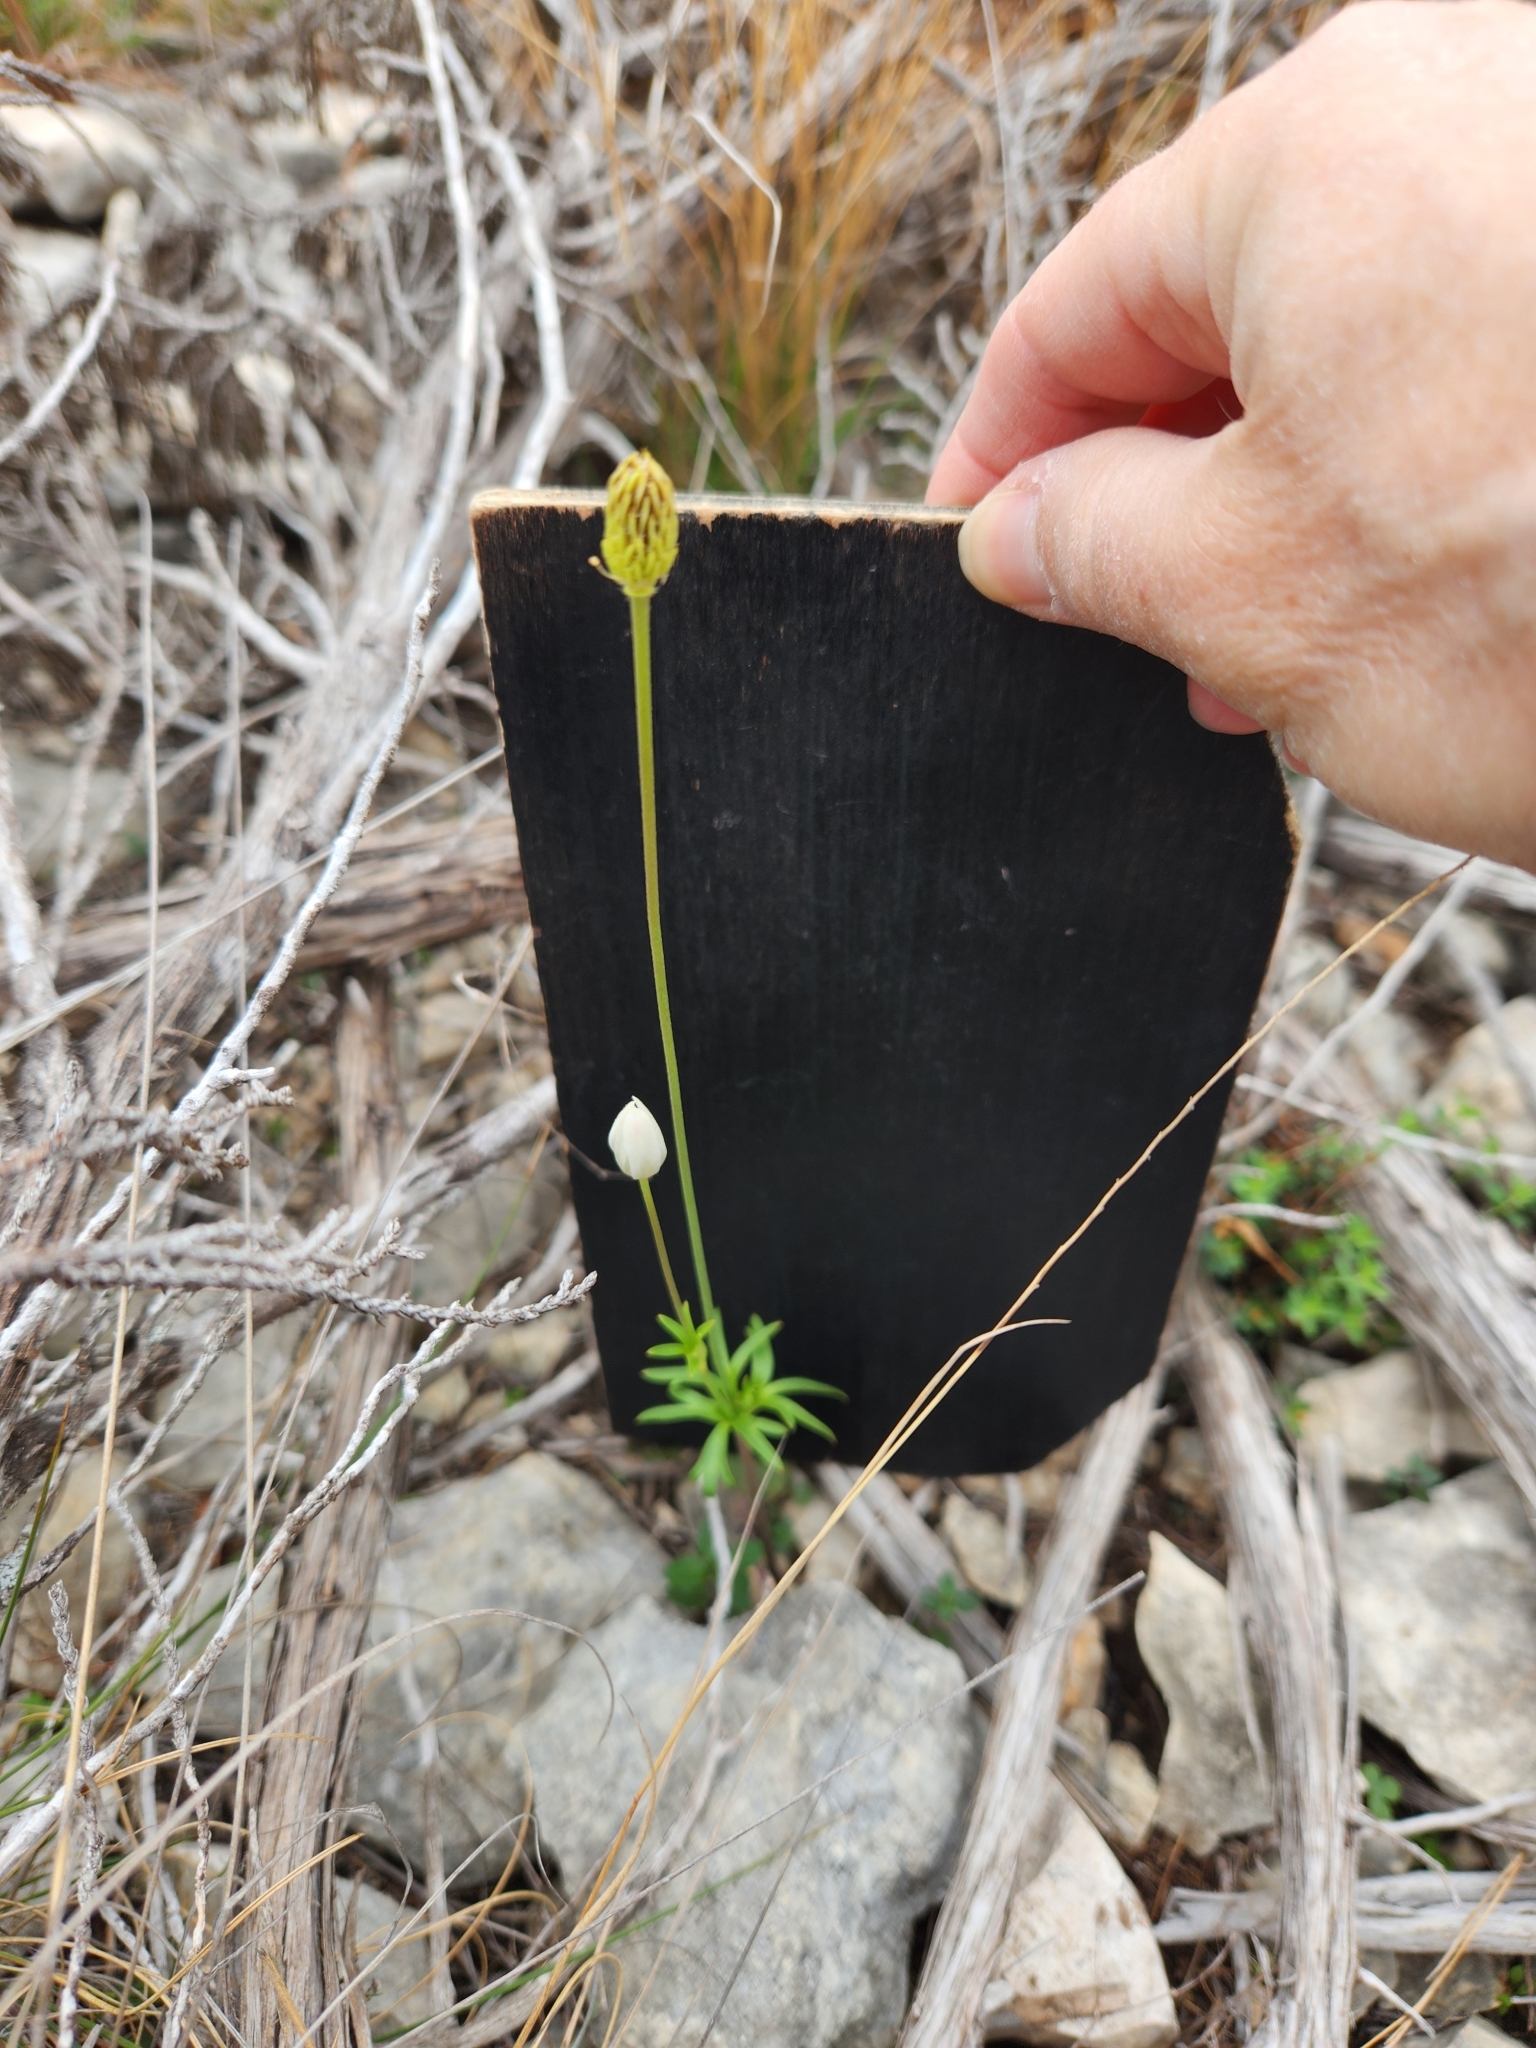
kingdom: Plantae
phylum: Tracheophyta
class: Magnoliopsida
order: Ranunculales
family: Ranunculaceae
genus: Anemone
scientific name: Anemone edwardsiana
